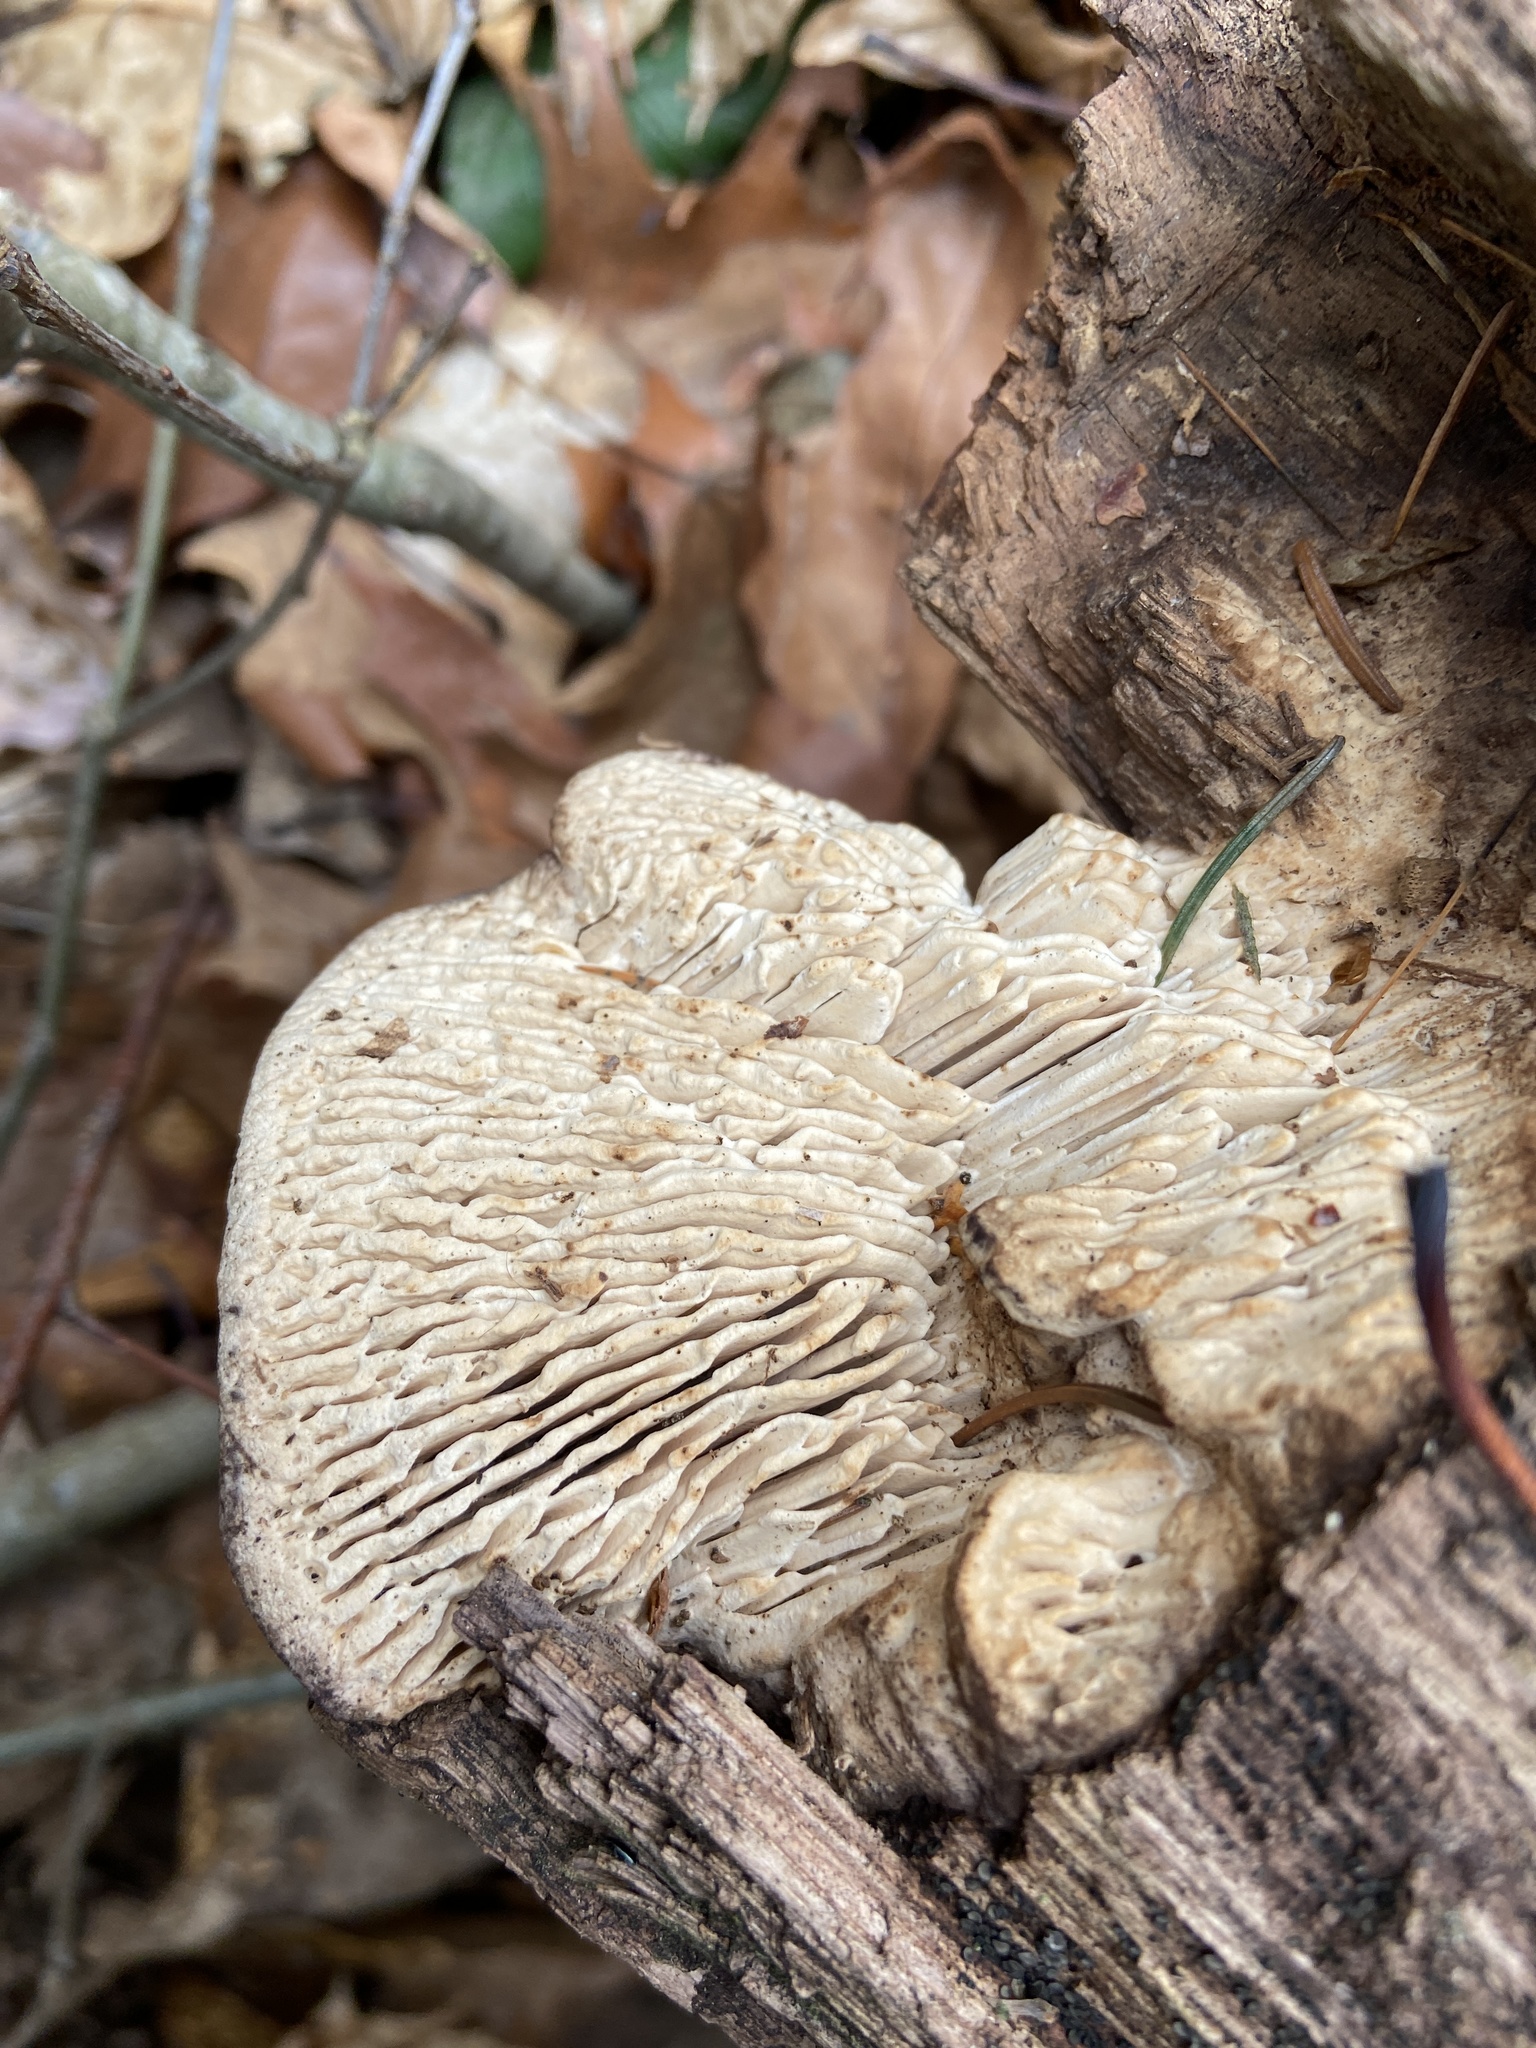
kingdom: Fungi
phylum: Basidiomycota
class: Agaricomycetes
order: Polyporales
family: Fomitopsidaceae
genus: Fomitopsis
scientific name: Fomitopsis
